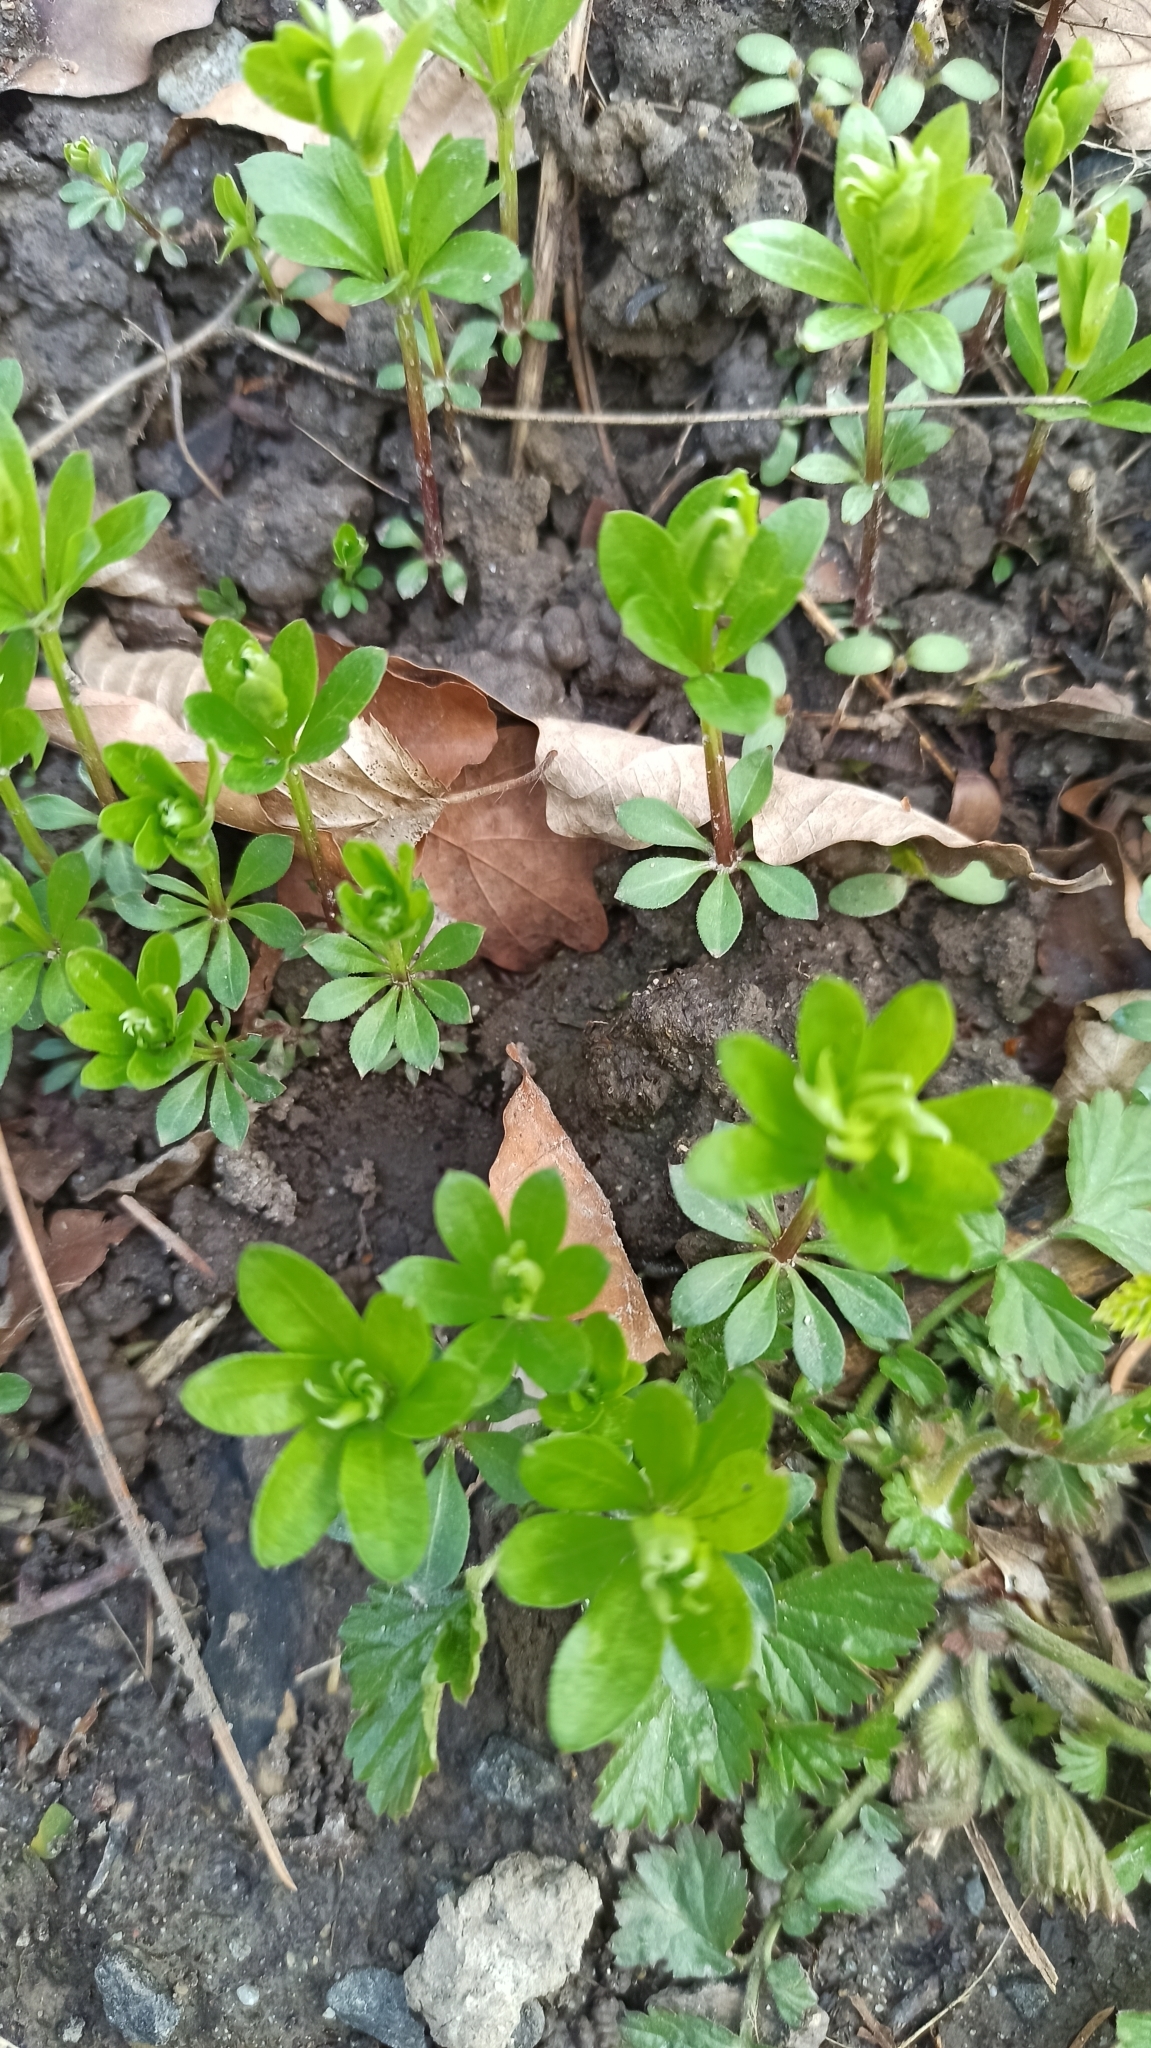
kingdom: Plantae
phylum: Tracheophyta
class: Magnoliopsida
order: Gentianales
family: Rubiaceae
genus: Galium
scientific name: Galium odoratum
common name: Sweet woodruff
